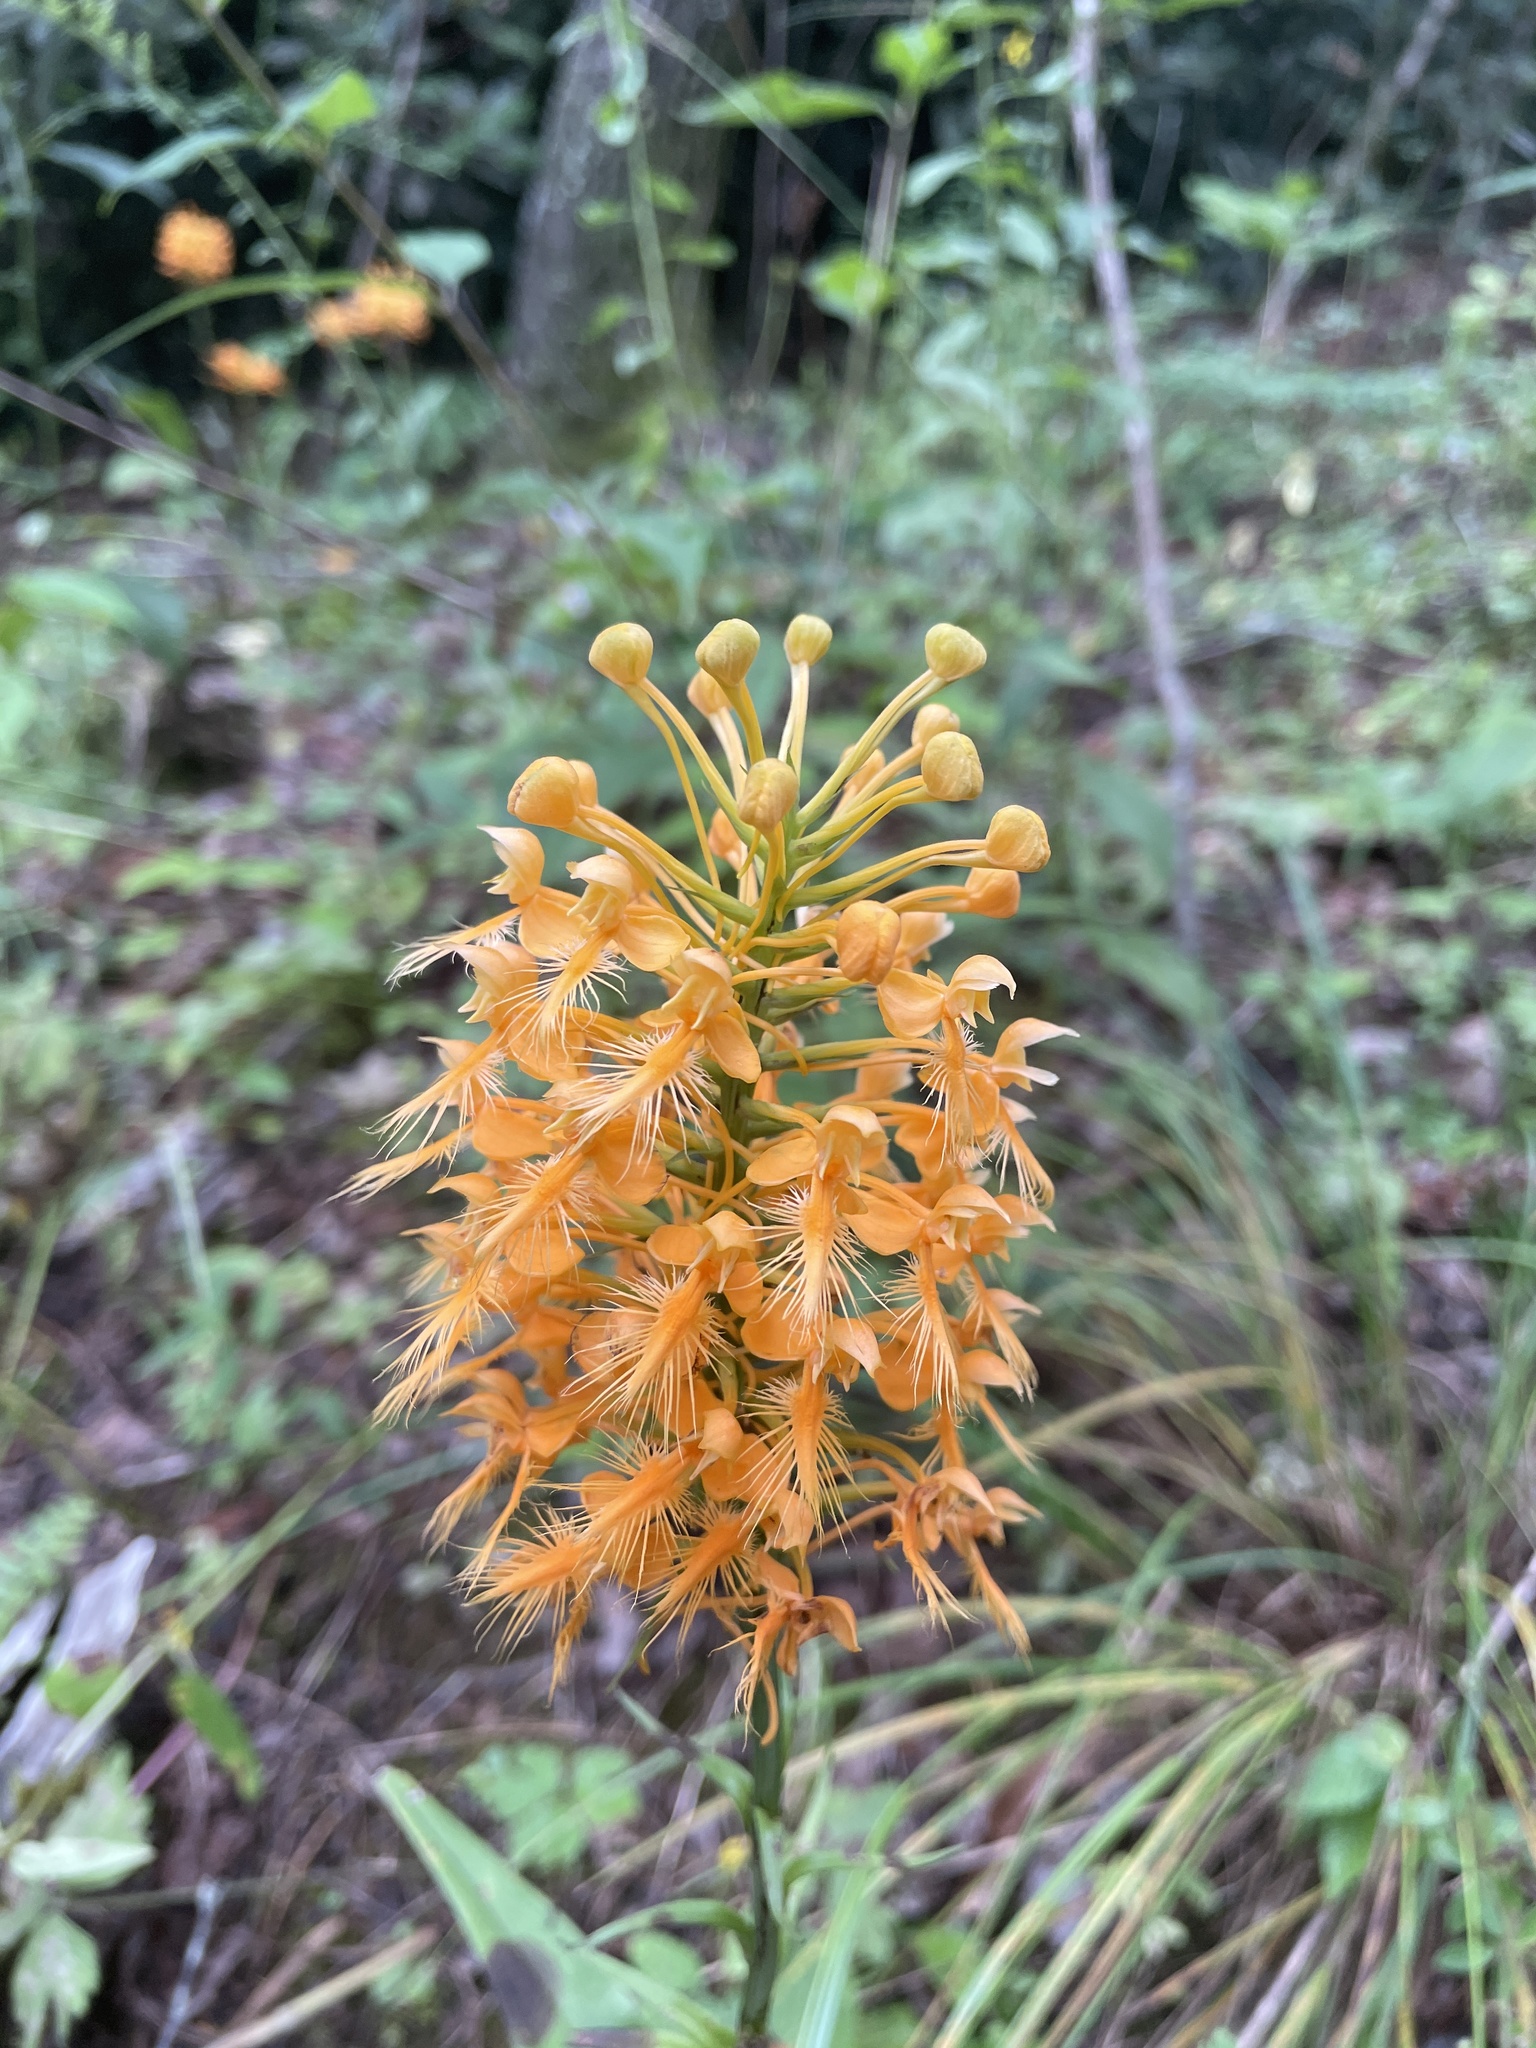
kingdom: Plantae
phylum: Tracheophyta
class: Liliopsida
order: Asparagales
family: Orchidaceae
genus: Platanthera
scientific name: Platanthera ciliaris
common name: Yellow fringed orchid
